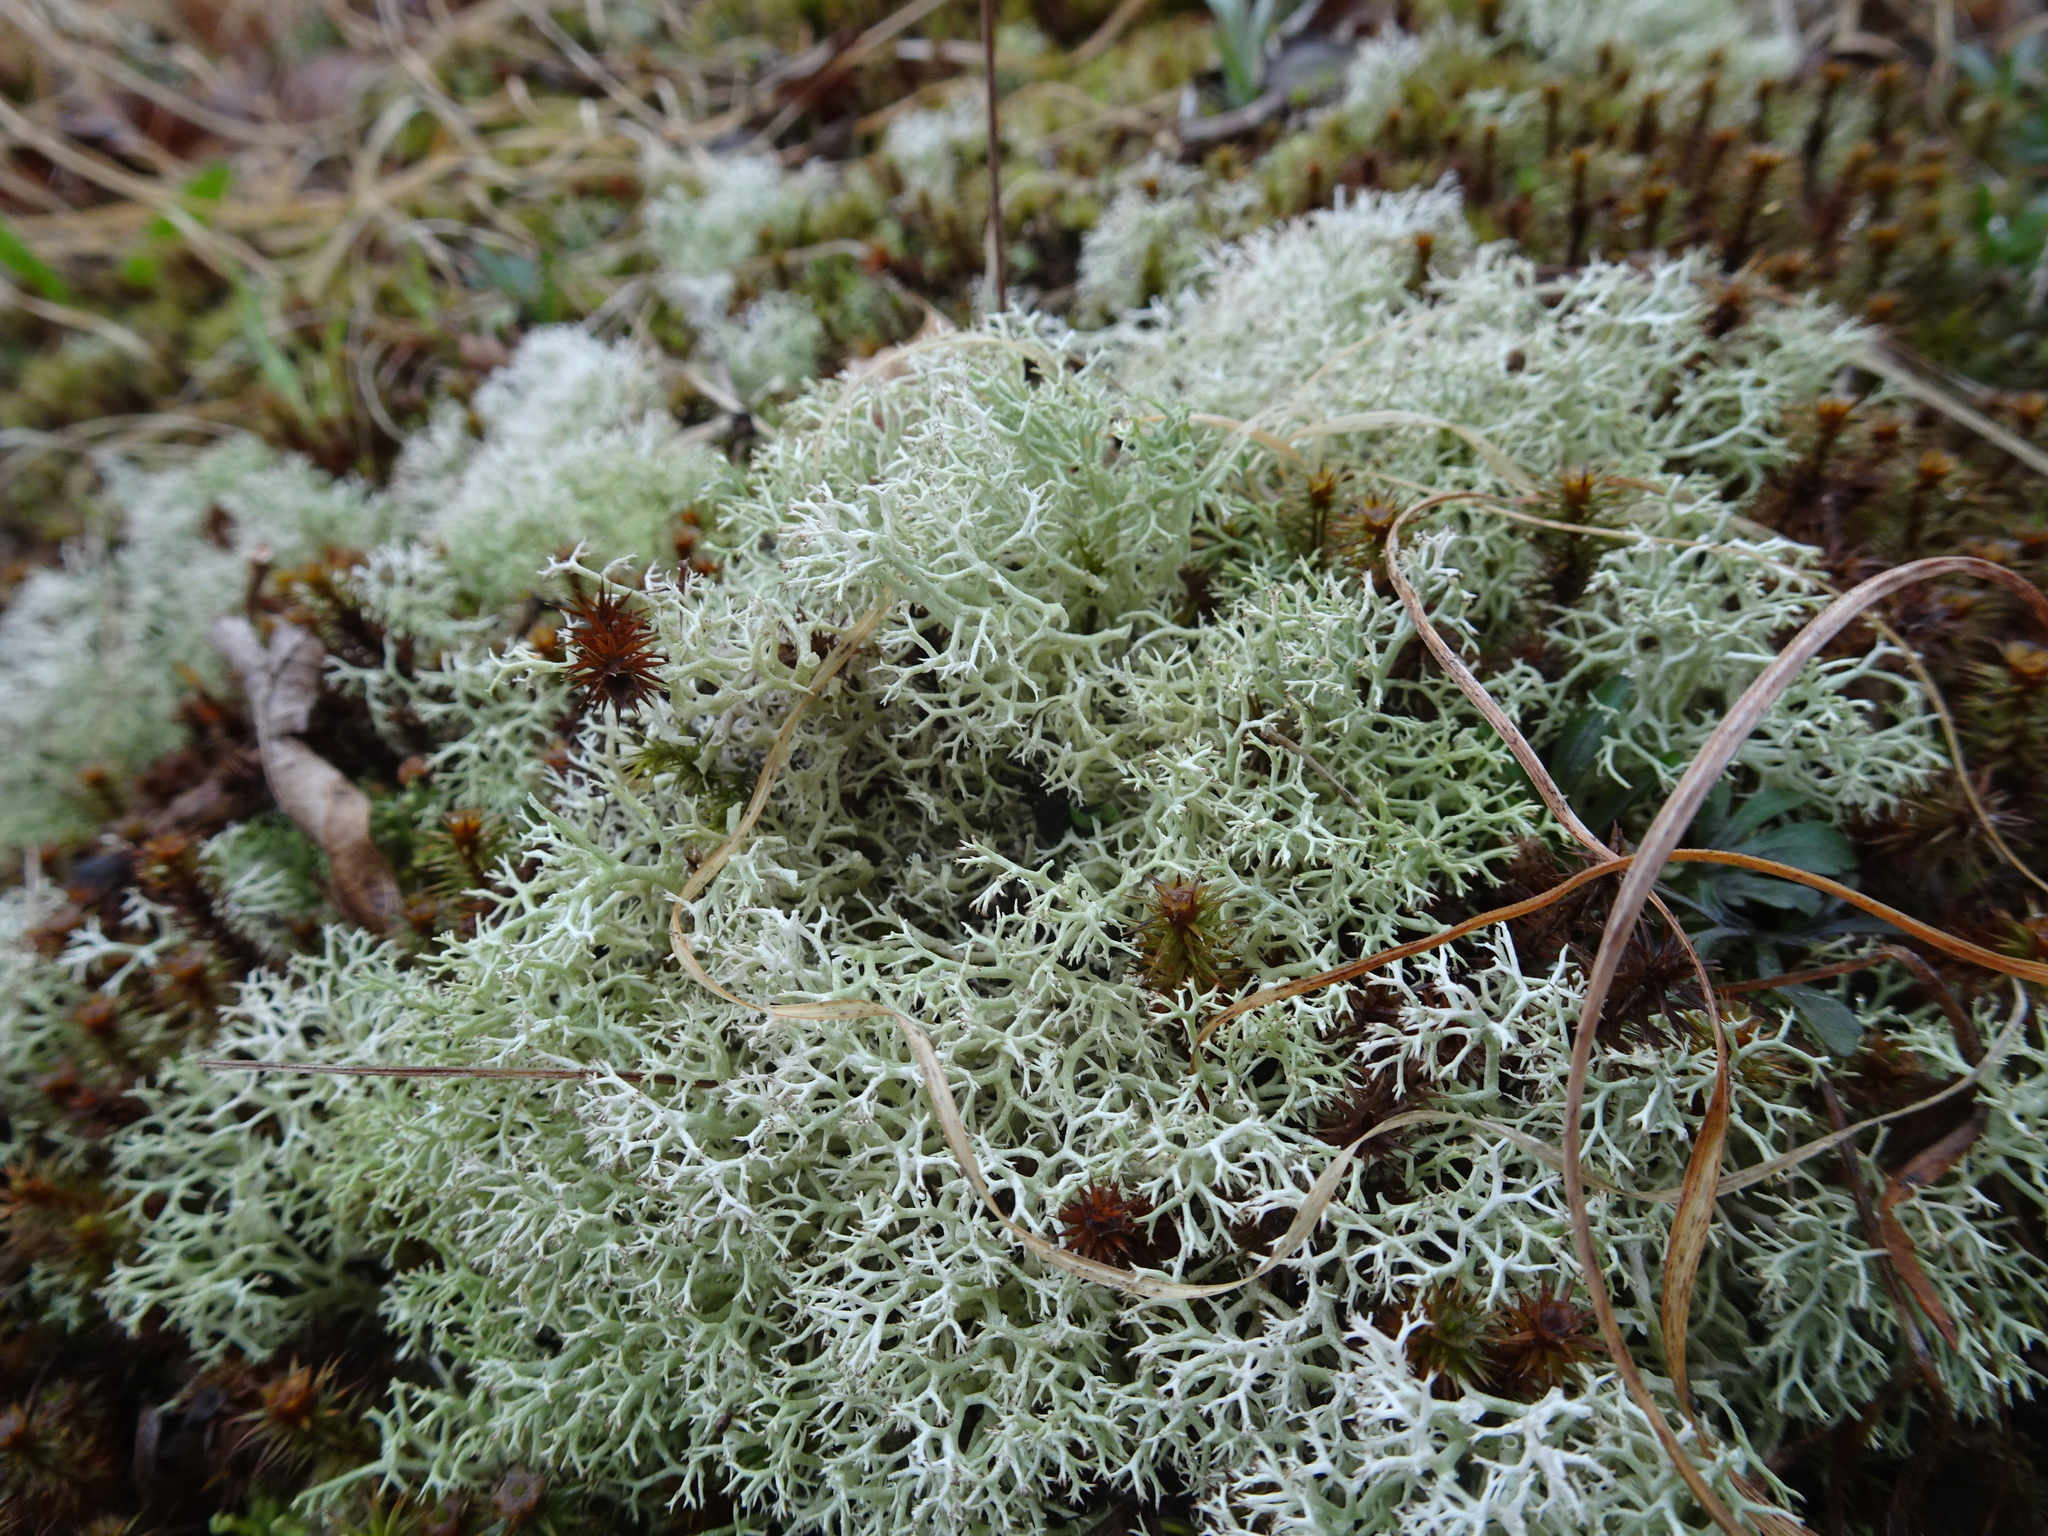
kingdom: Fungi
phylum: Ascomycota
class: Lecanoromycetes
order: Lecanorales
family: Cladoniaceae
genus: Cladonia
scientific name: Cladonia subtenuis
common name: Dixie reindeer lichen
